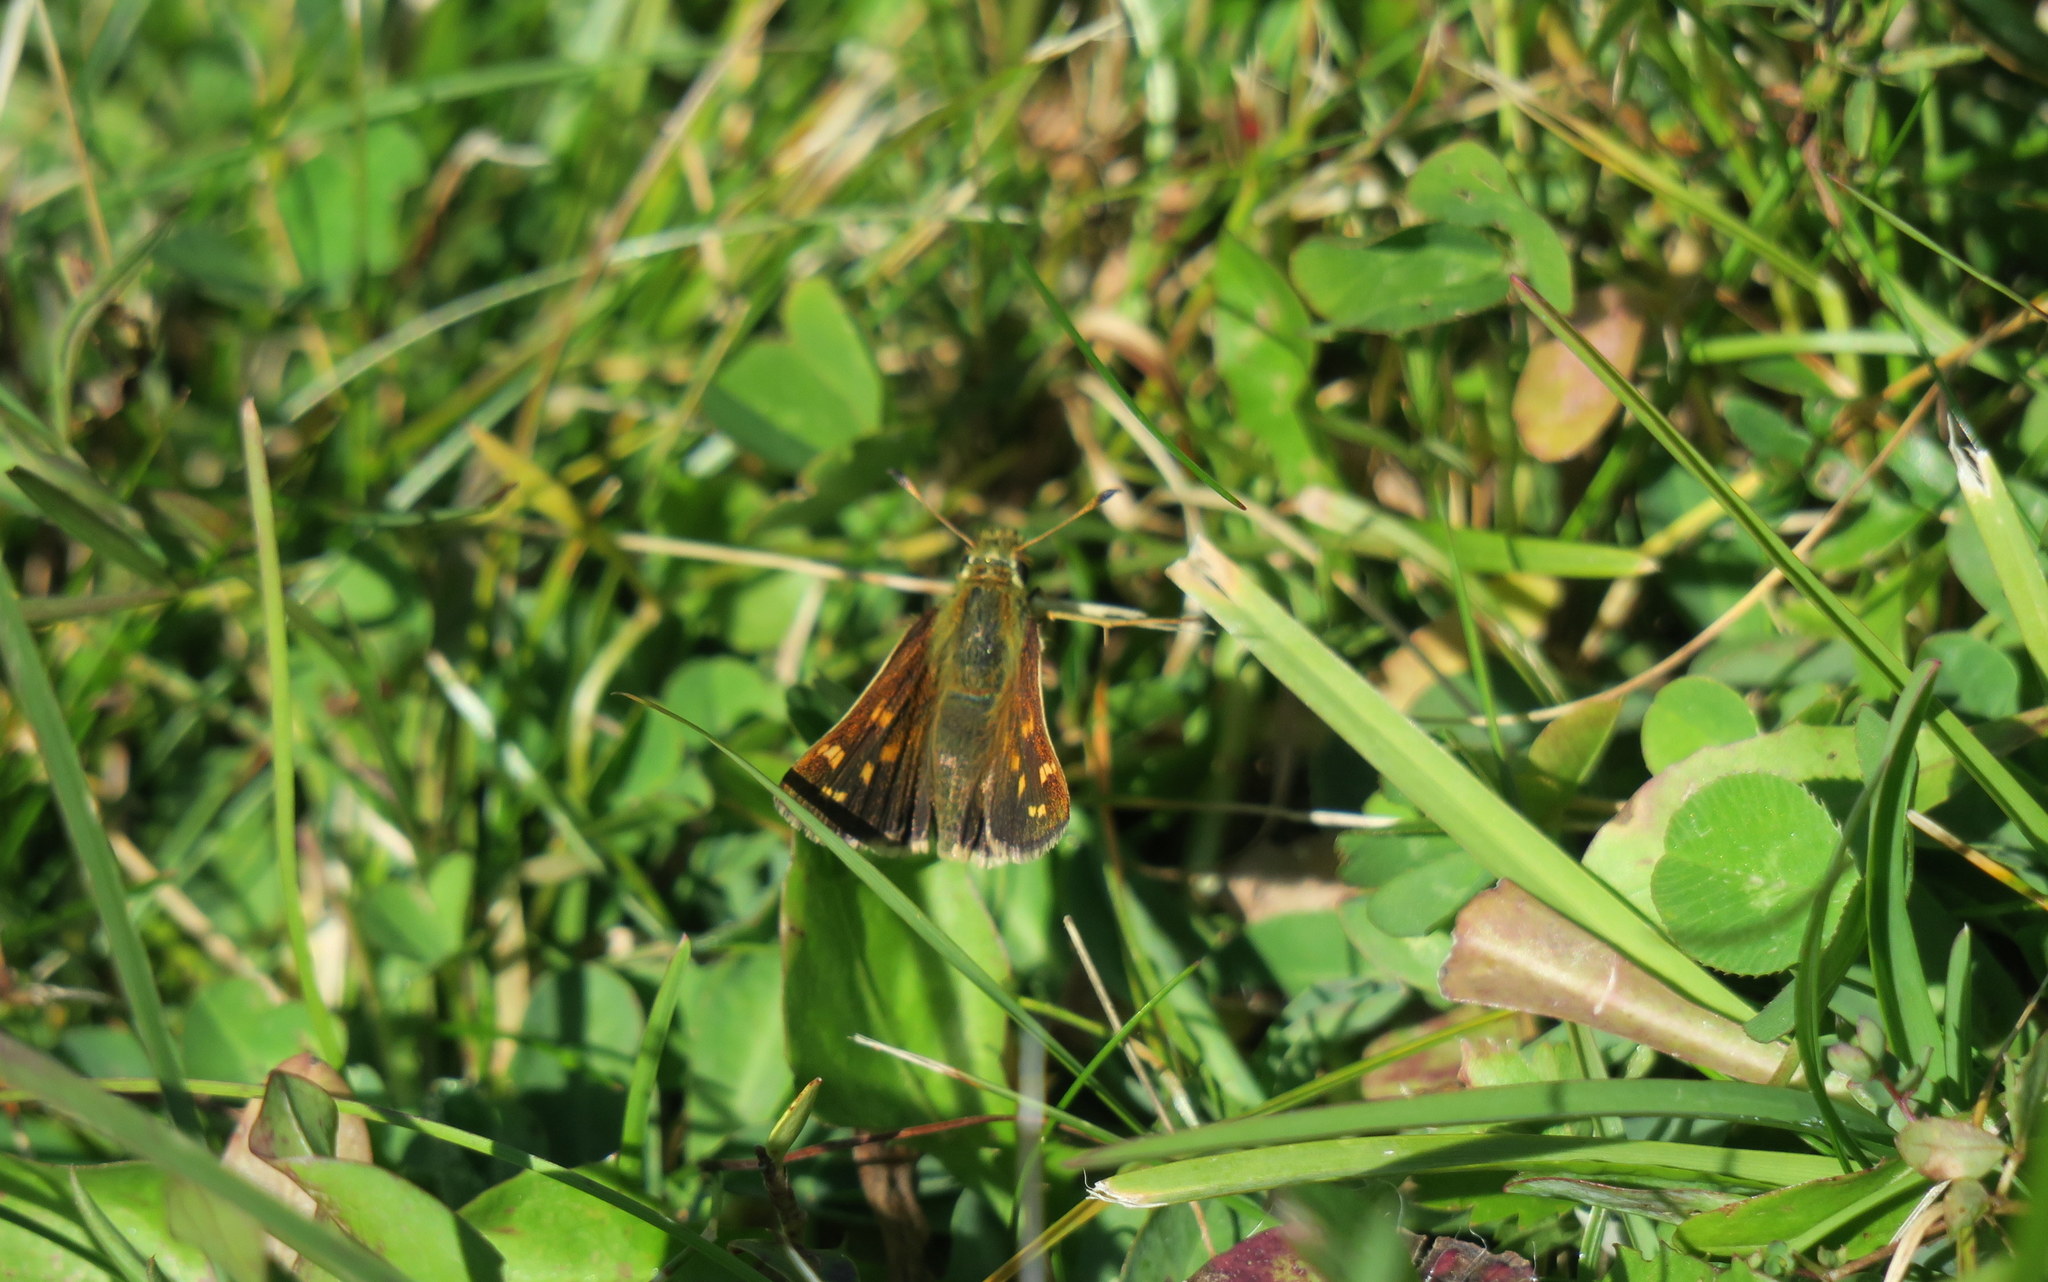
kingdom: Animalia
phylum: Arthropoda
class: Insecta
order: Lepidoptera
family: Hesperiidae
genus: Hesperia
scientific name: Hesperia comma
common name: Common branded skipper
